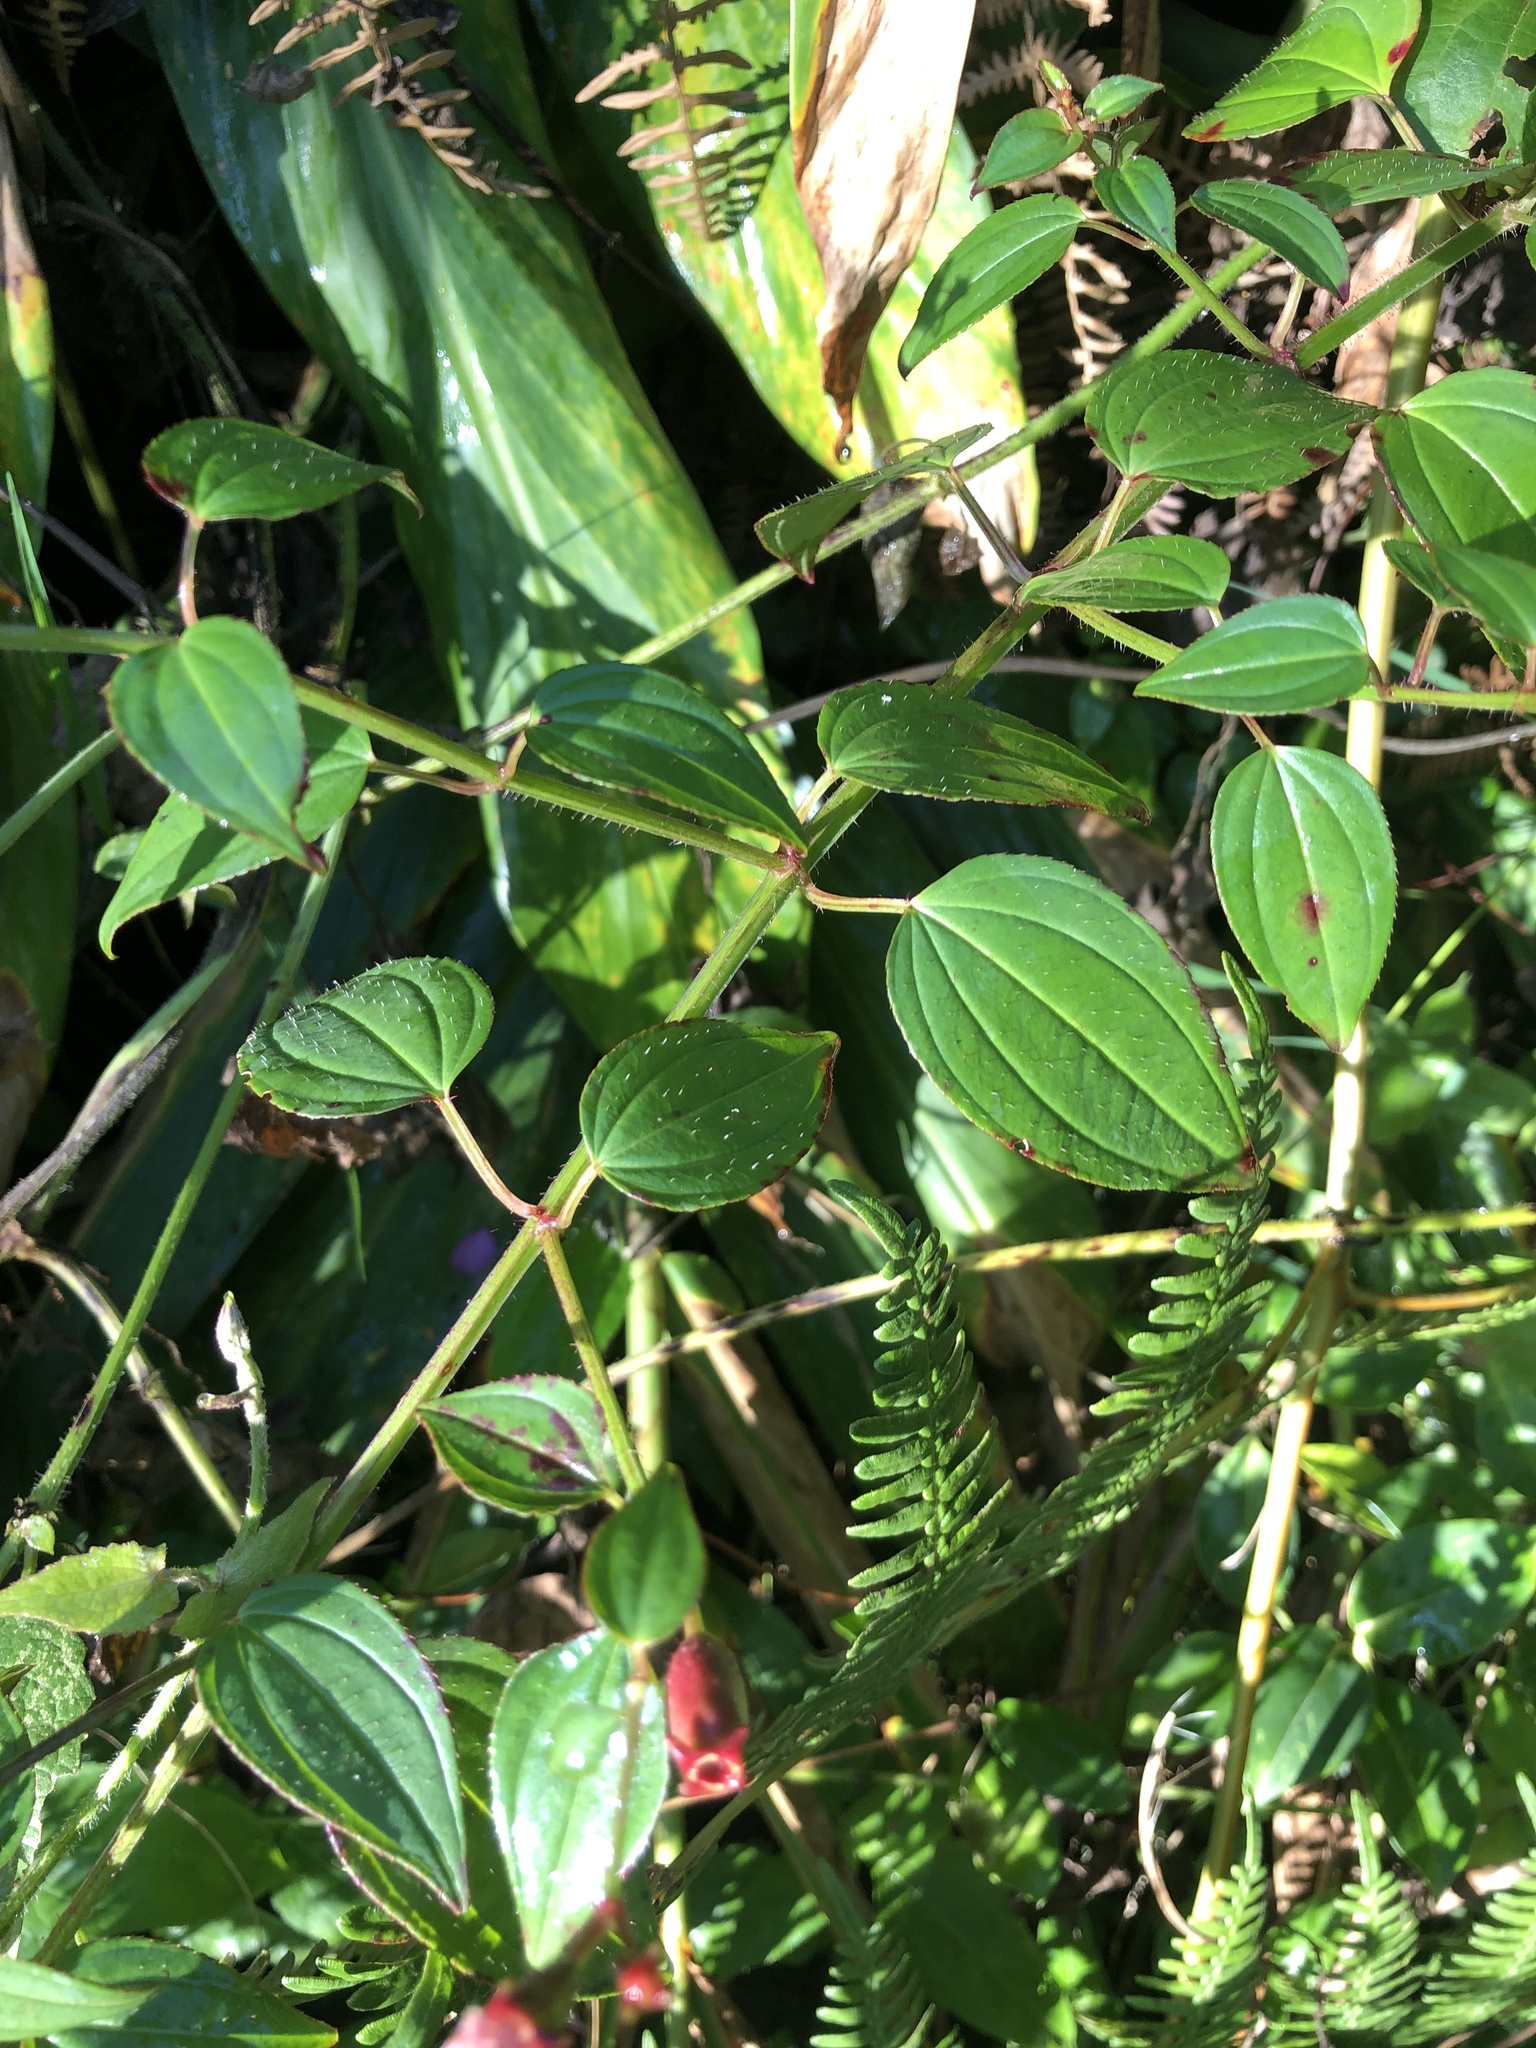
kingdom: Plantae
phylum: Tracheophyta
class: Magnoliopsida
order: Myrtales
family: Melastomataceae
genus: Arthrostemma
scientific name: Arthrostemma ciliatum
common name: Everblooming eavender
